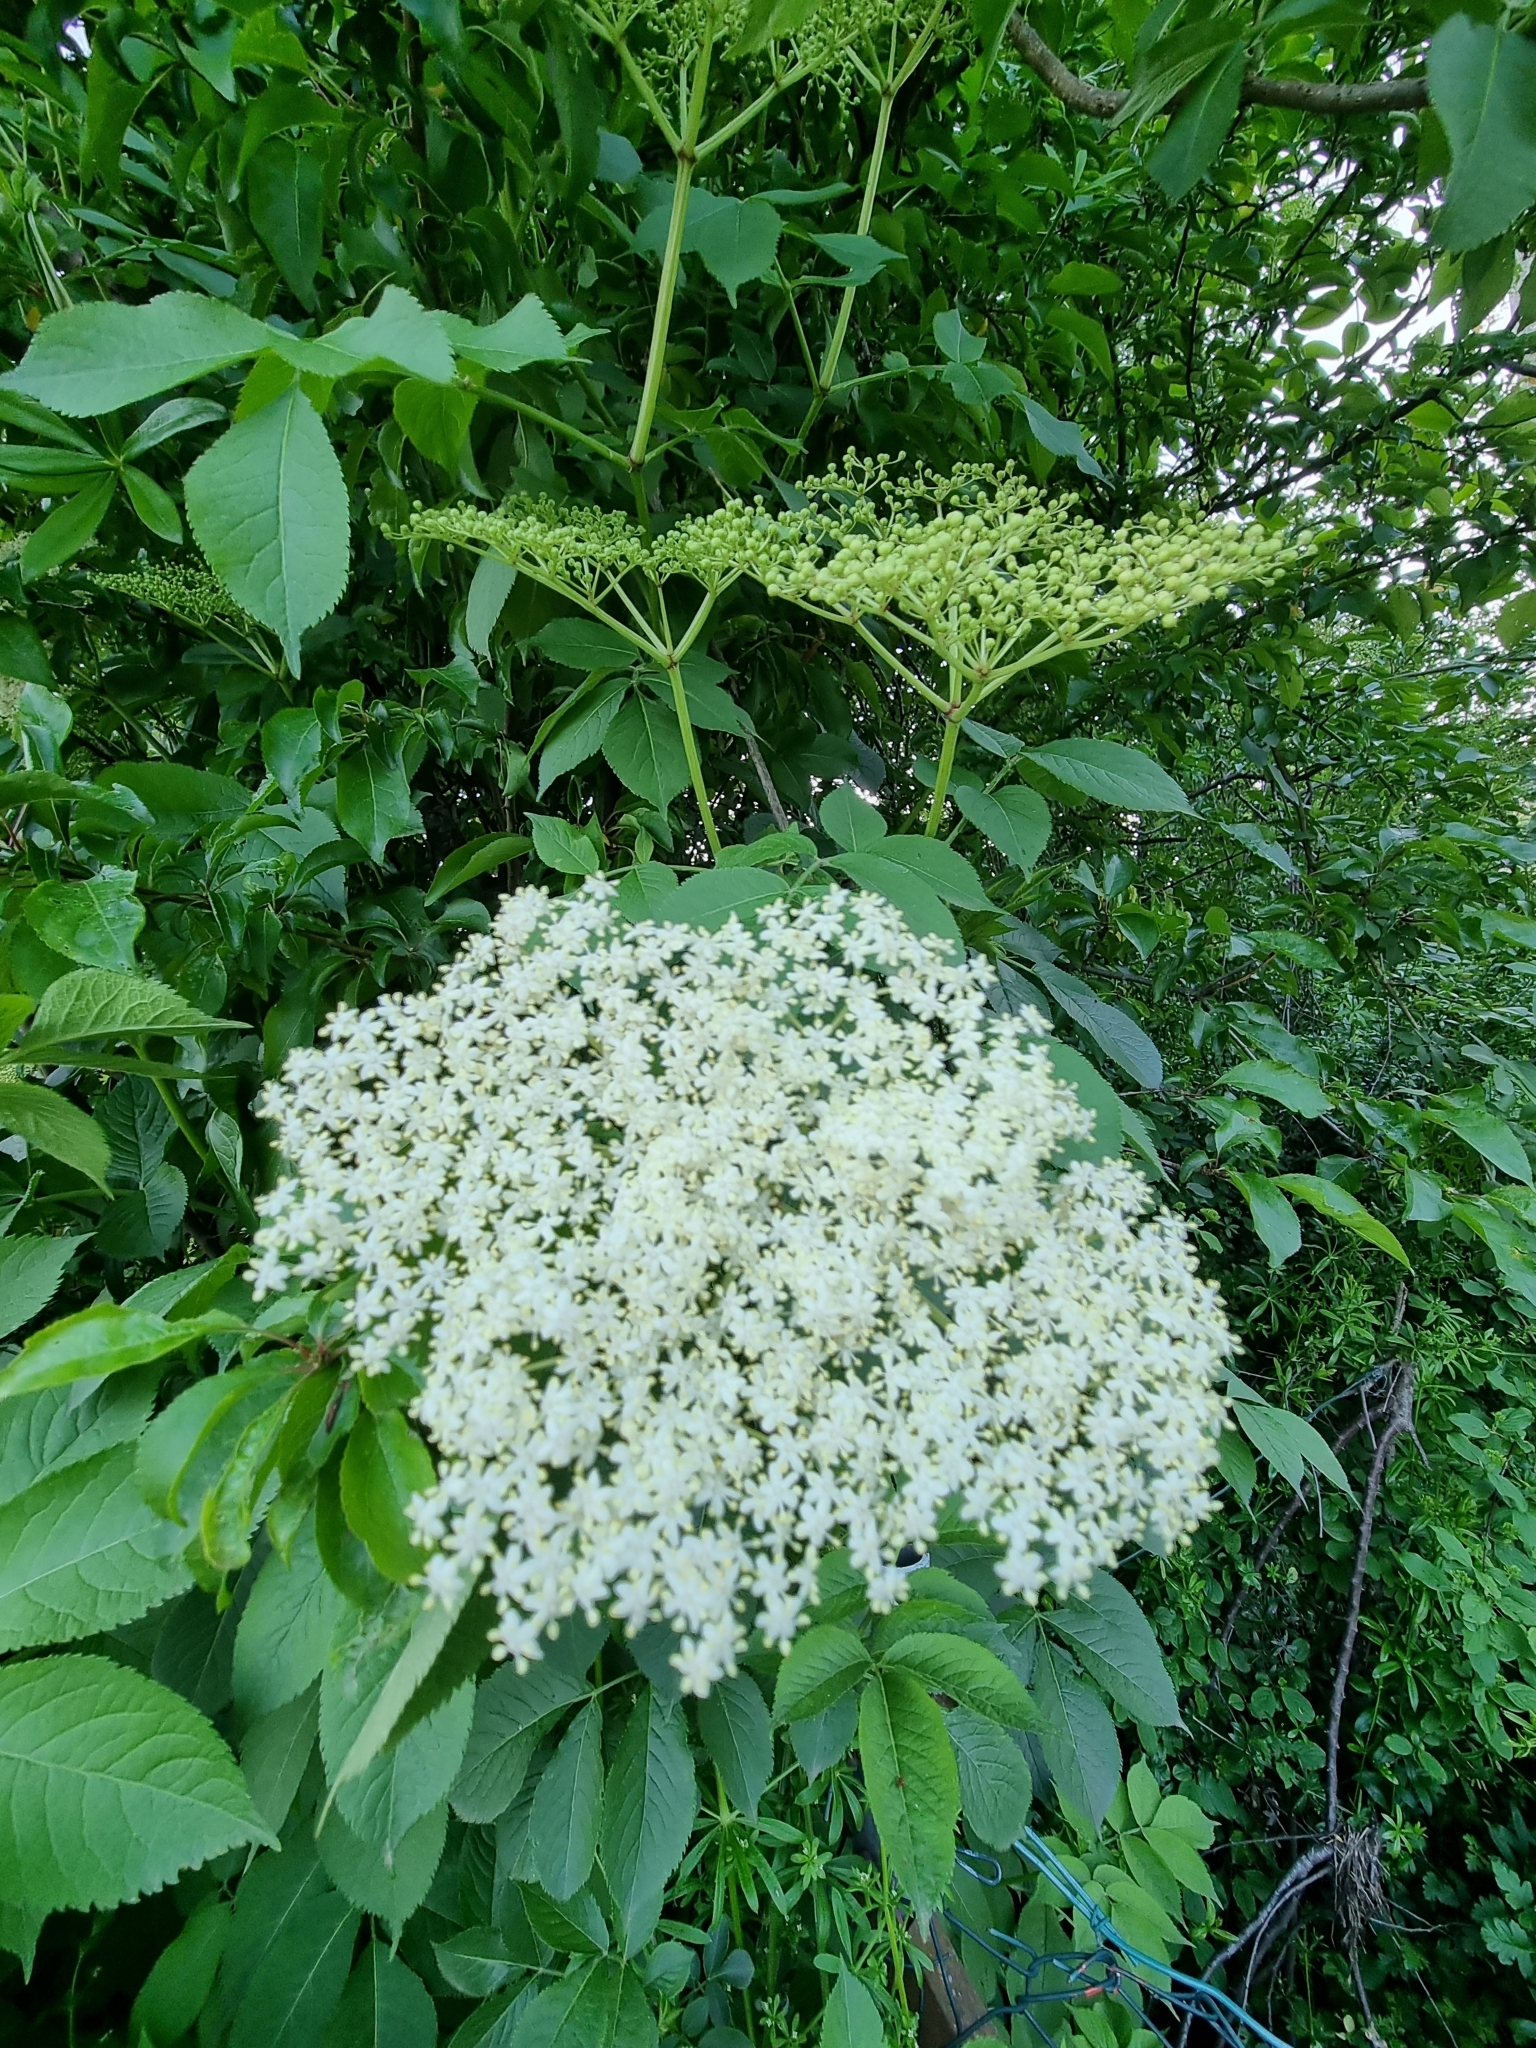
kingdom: Plantae
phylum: Tracheophyta
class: Magnoliopsida
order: Dipsacales
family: Viburnaceae
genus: Sambucus
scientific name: Sambucus nigra
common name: Elder
